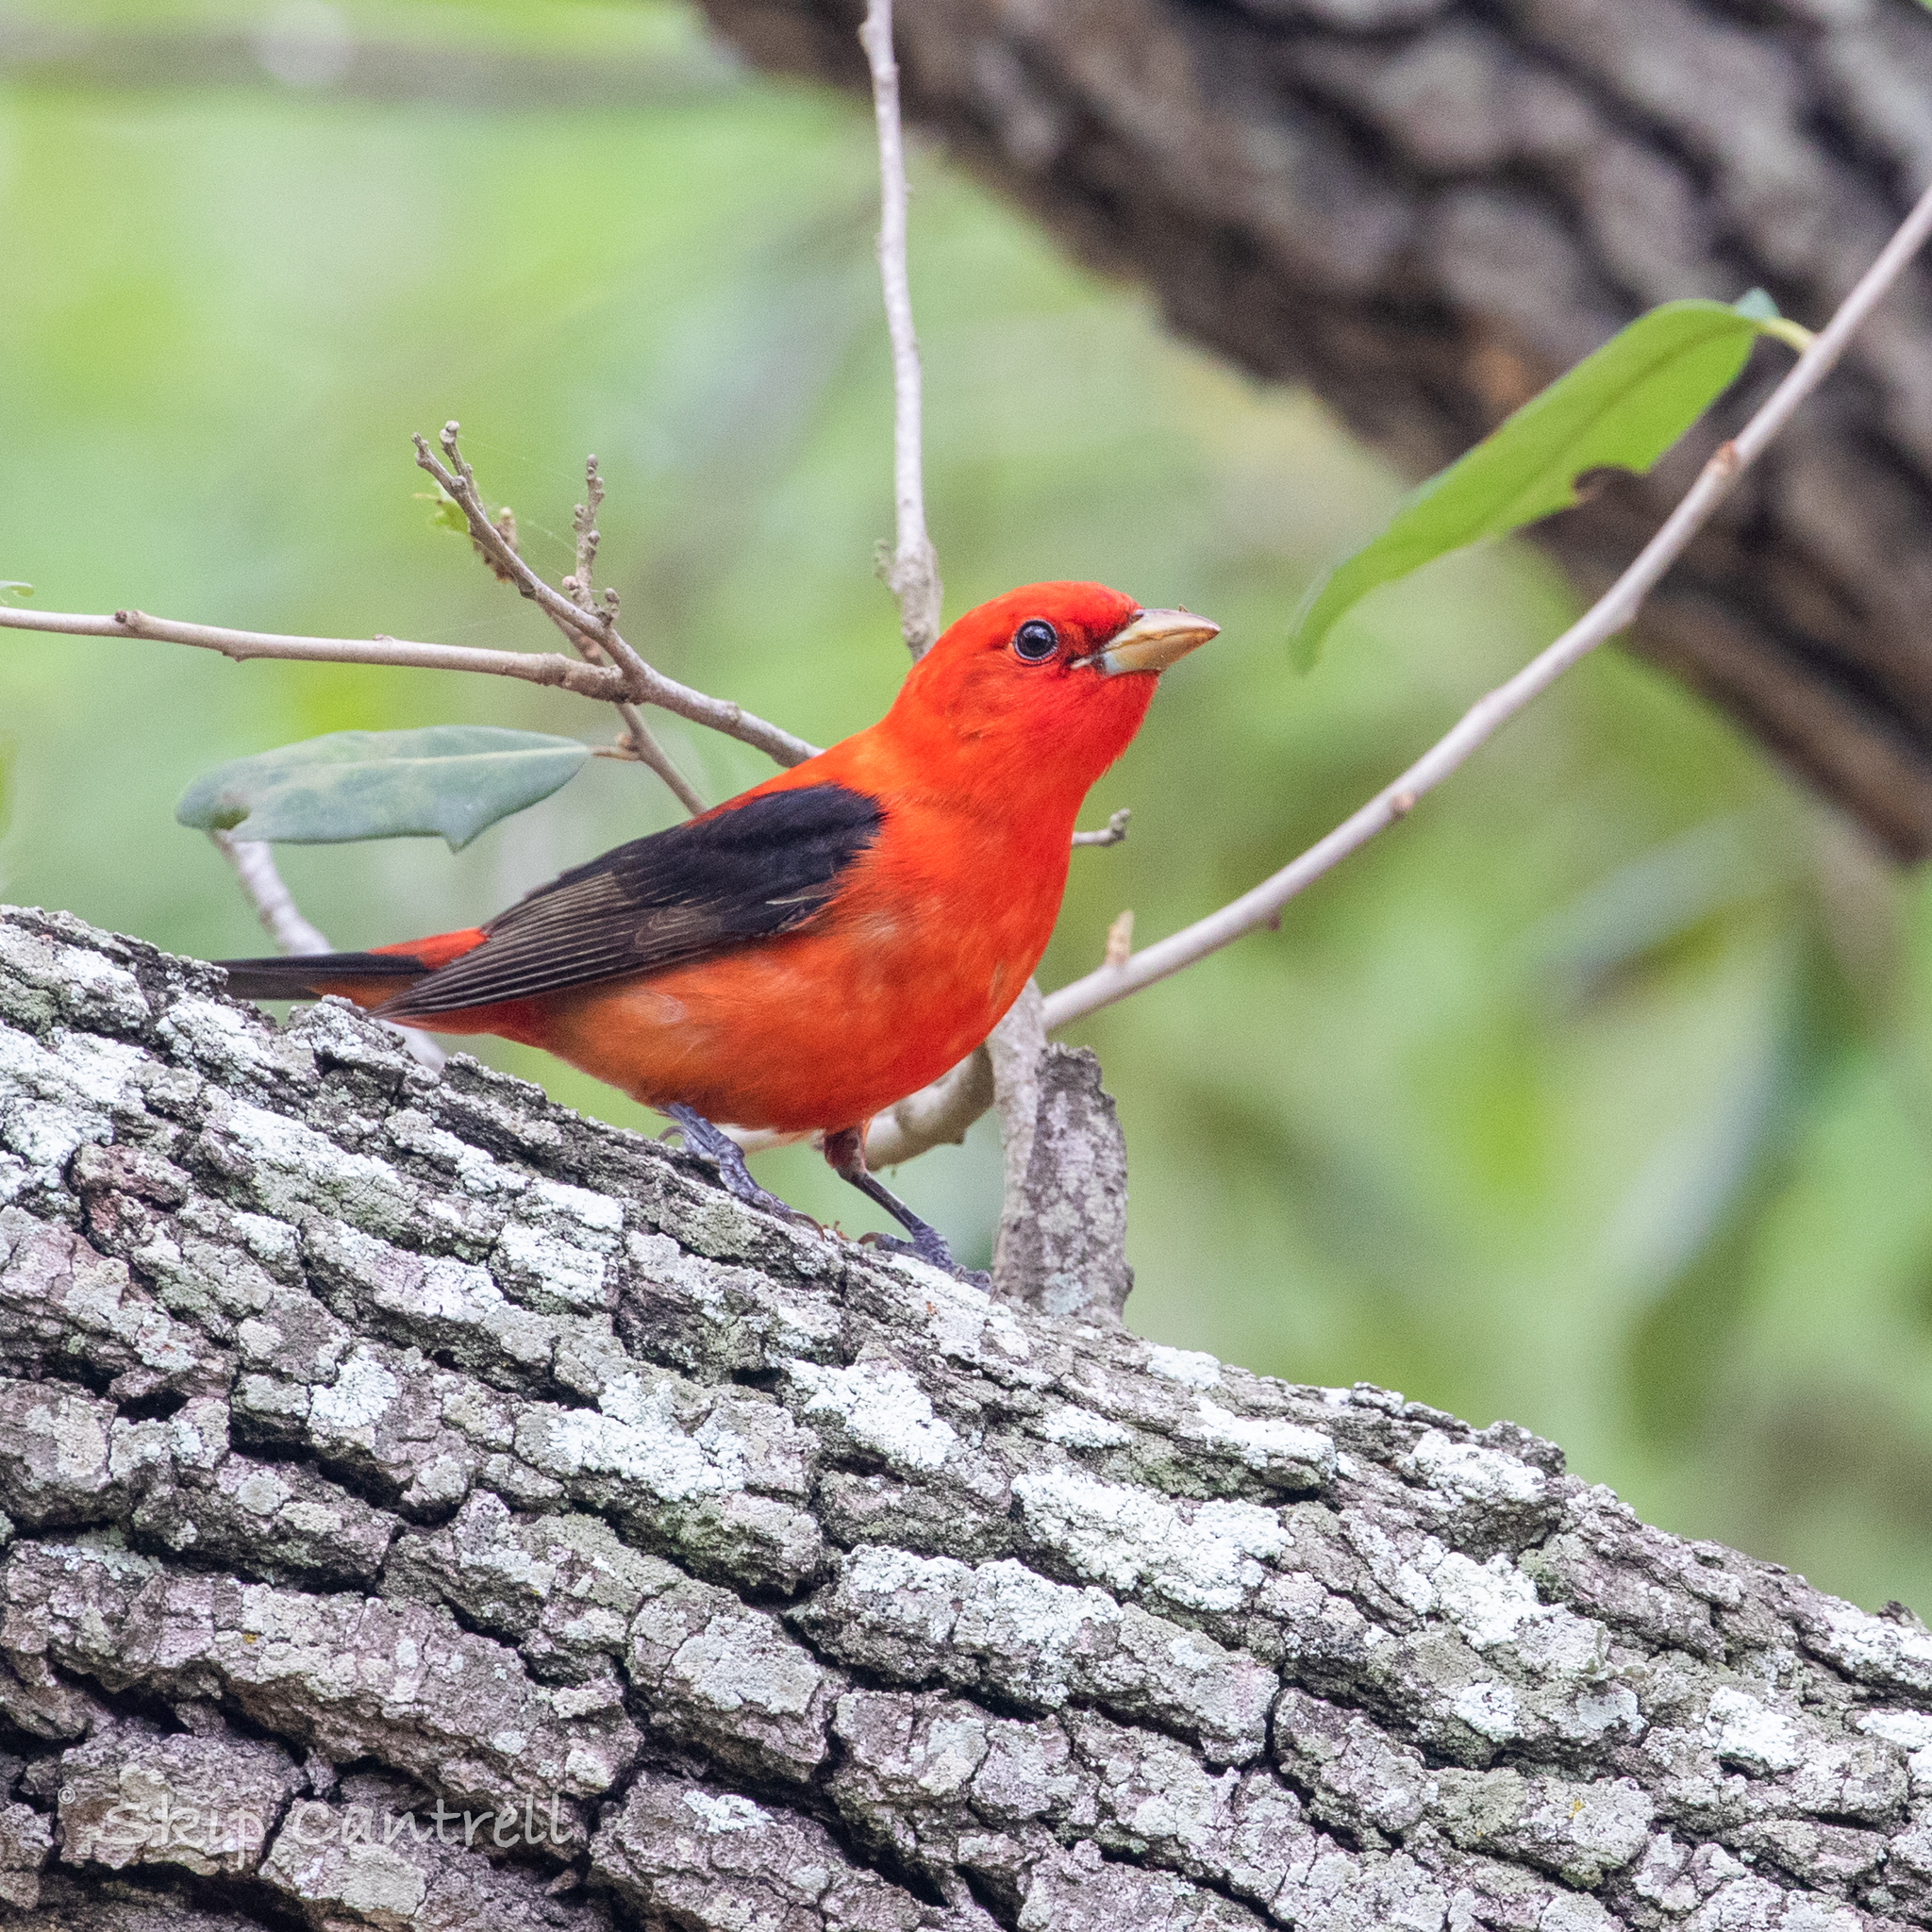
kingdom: Animalia
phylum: Chordata
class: Aves
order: Passeriformes
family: Cardinalidae
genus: Piranga
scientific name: Piranga olivacea
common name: Scarlet tanager
